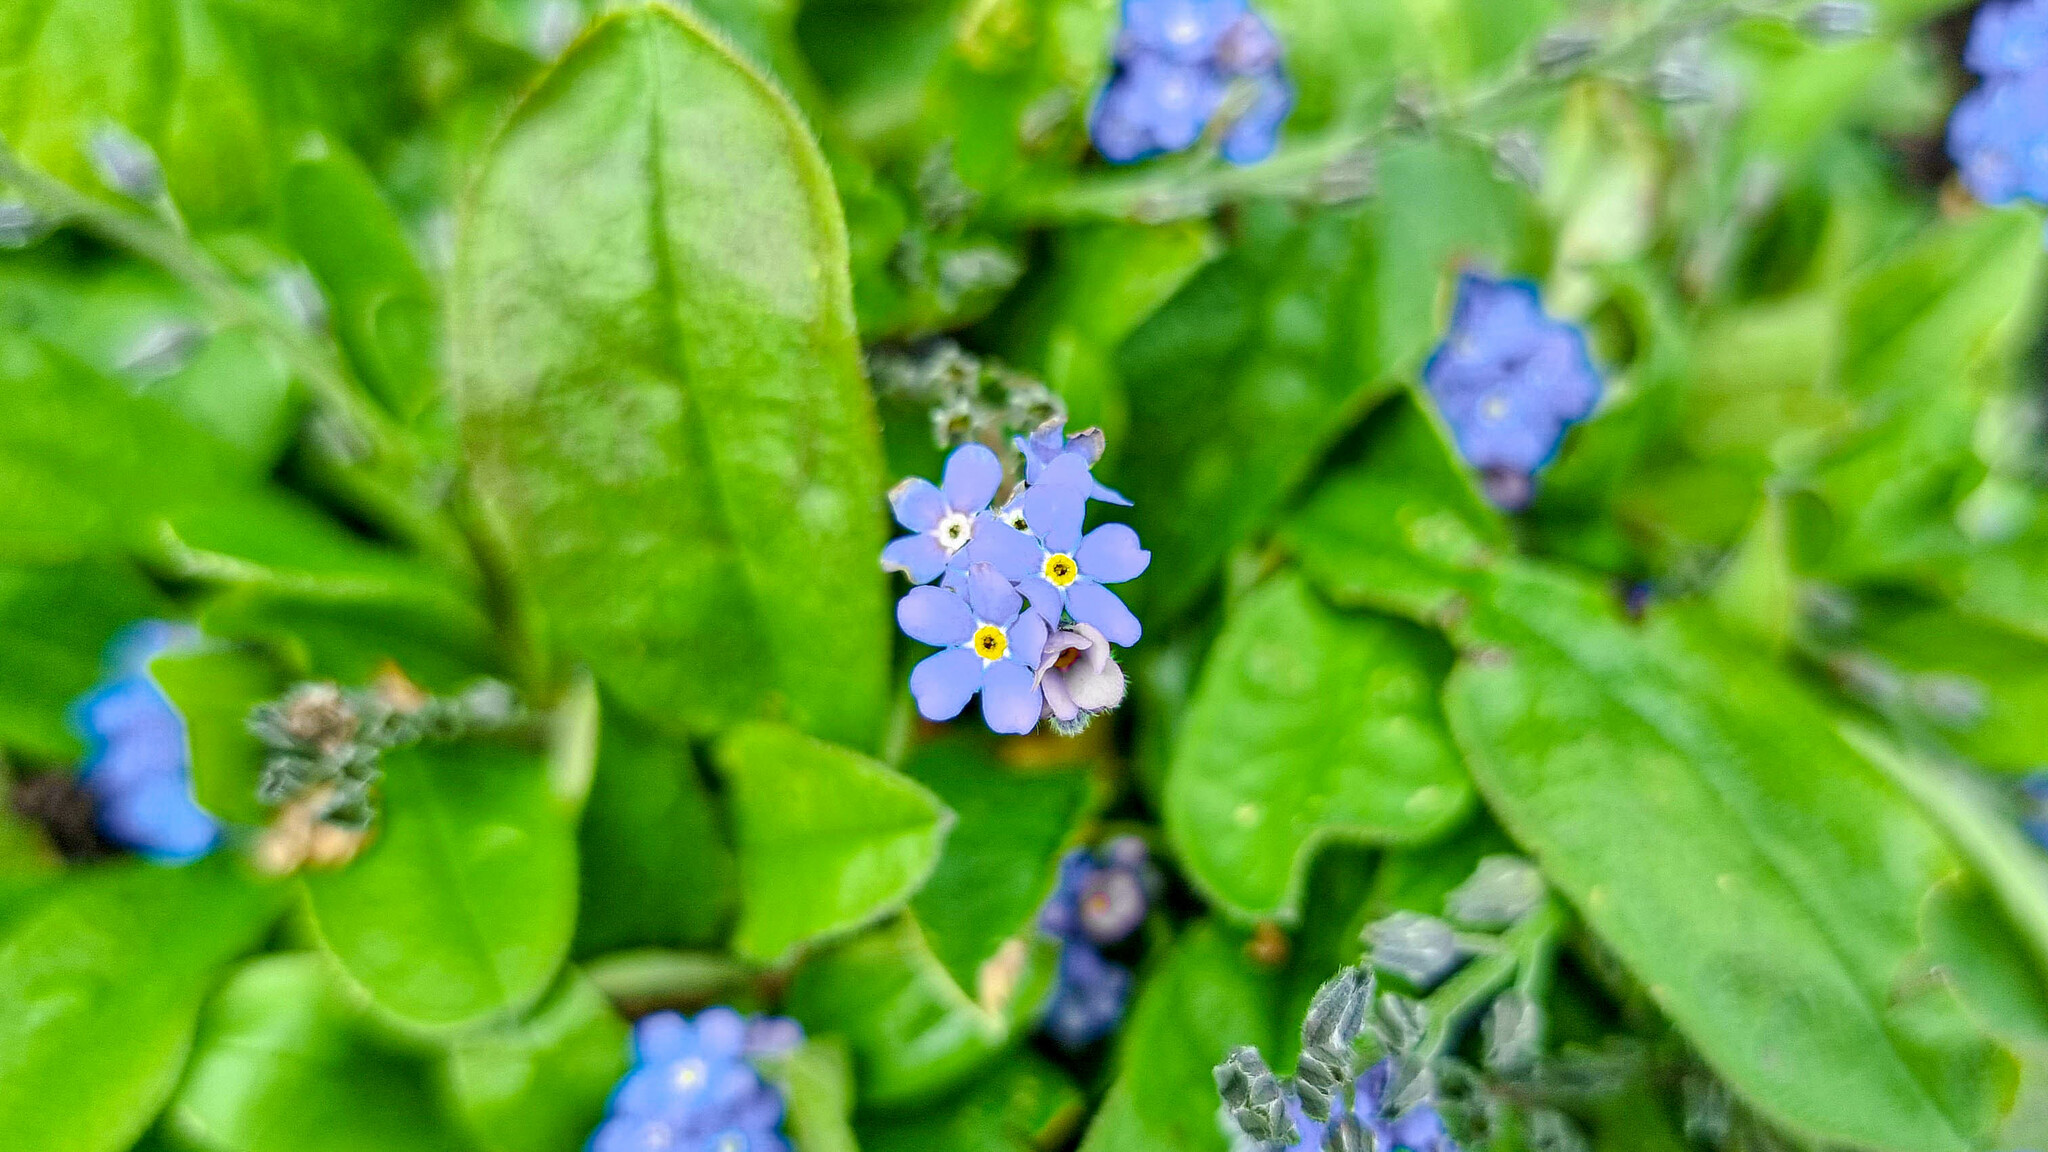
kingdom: Plantae
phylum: Tracheophyta
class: Magnoliopsida
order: Boraginales
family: Boraginaceae
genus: Myosotis
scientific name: Myosotis arvensis
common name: Field forget-me-not
